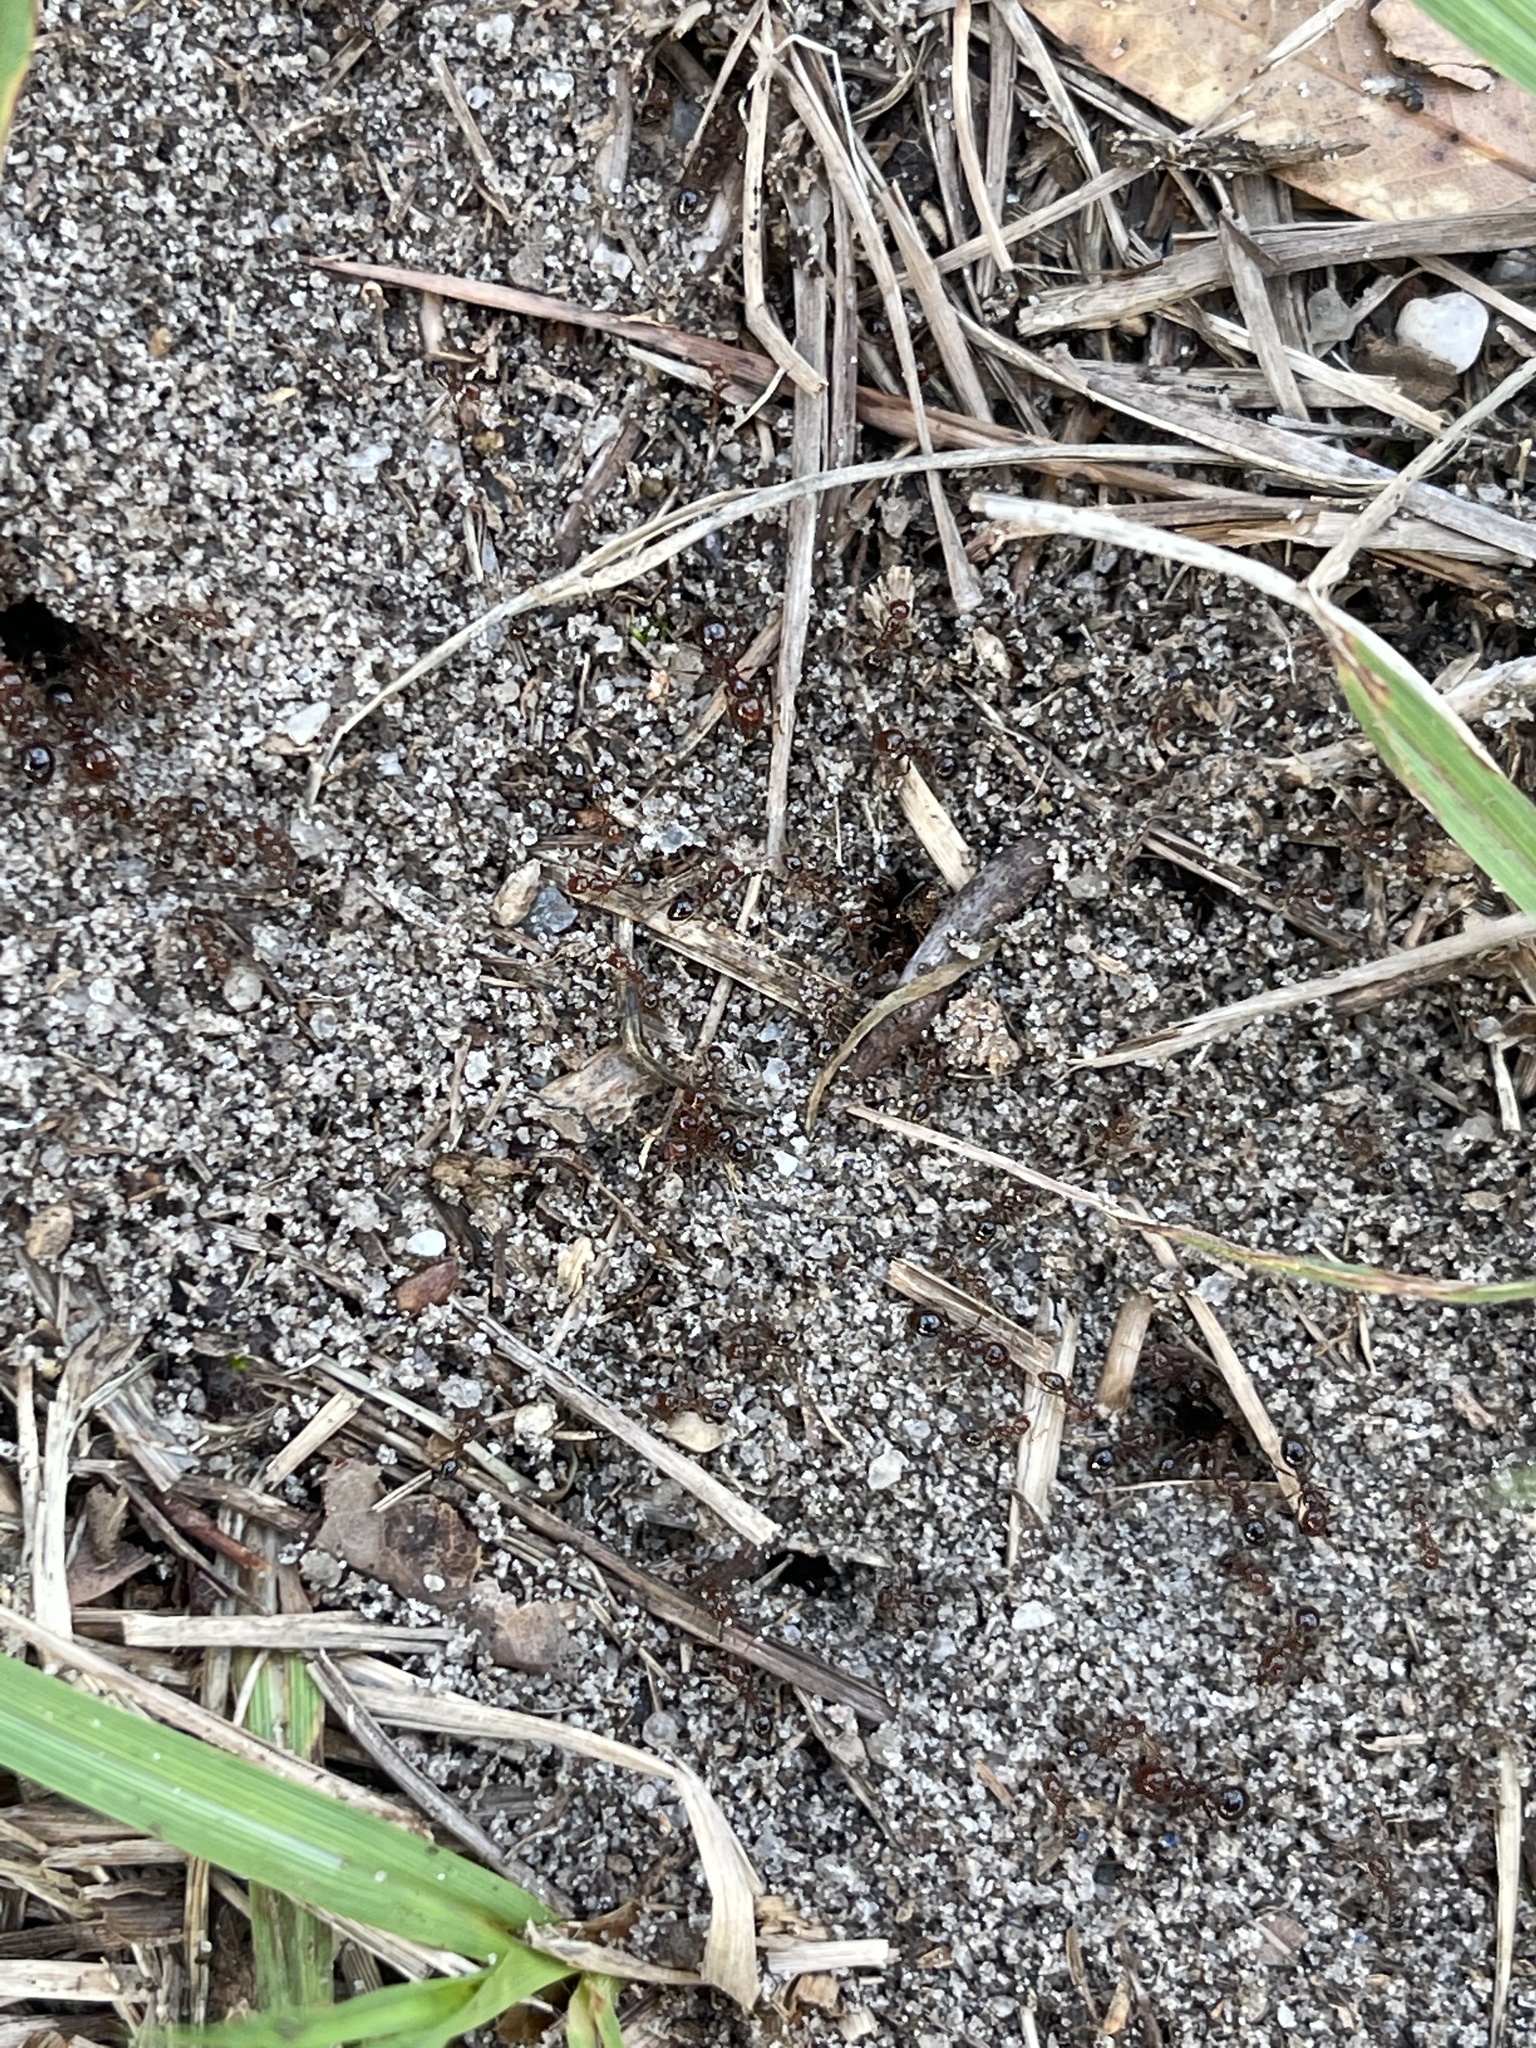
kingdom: Animalia
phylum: Arthropoda
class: Insecta
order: Hymenoptera
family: Formicidae
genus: Solenopsis
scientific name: Solenopsis invicta
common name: Red imported fire ant
